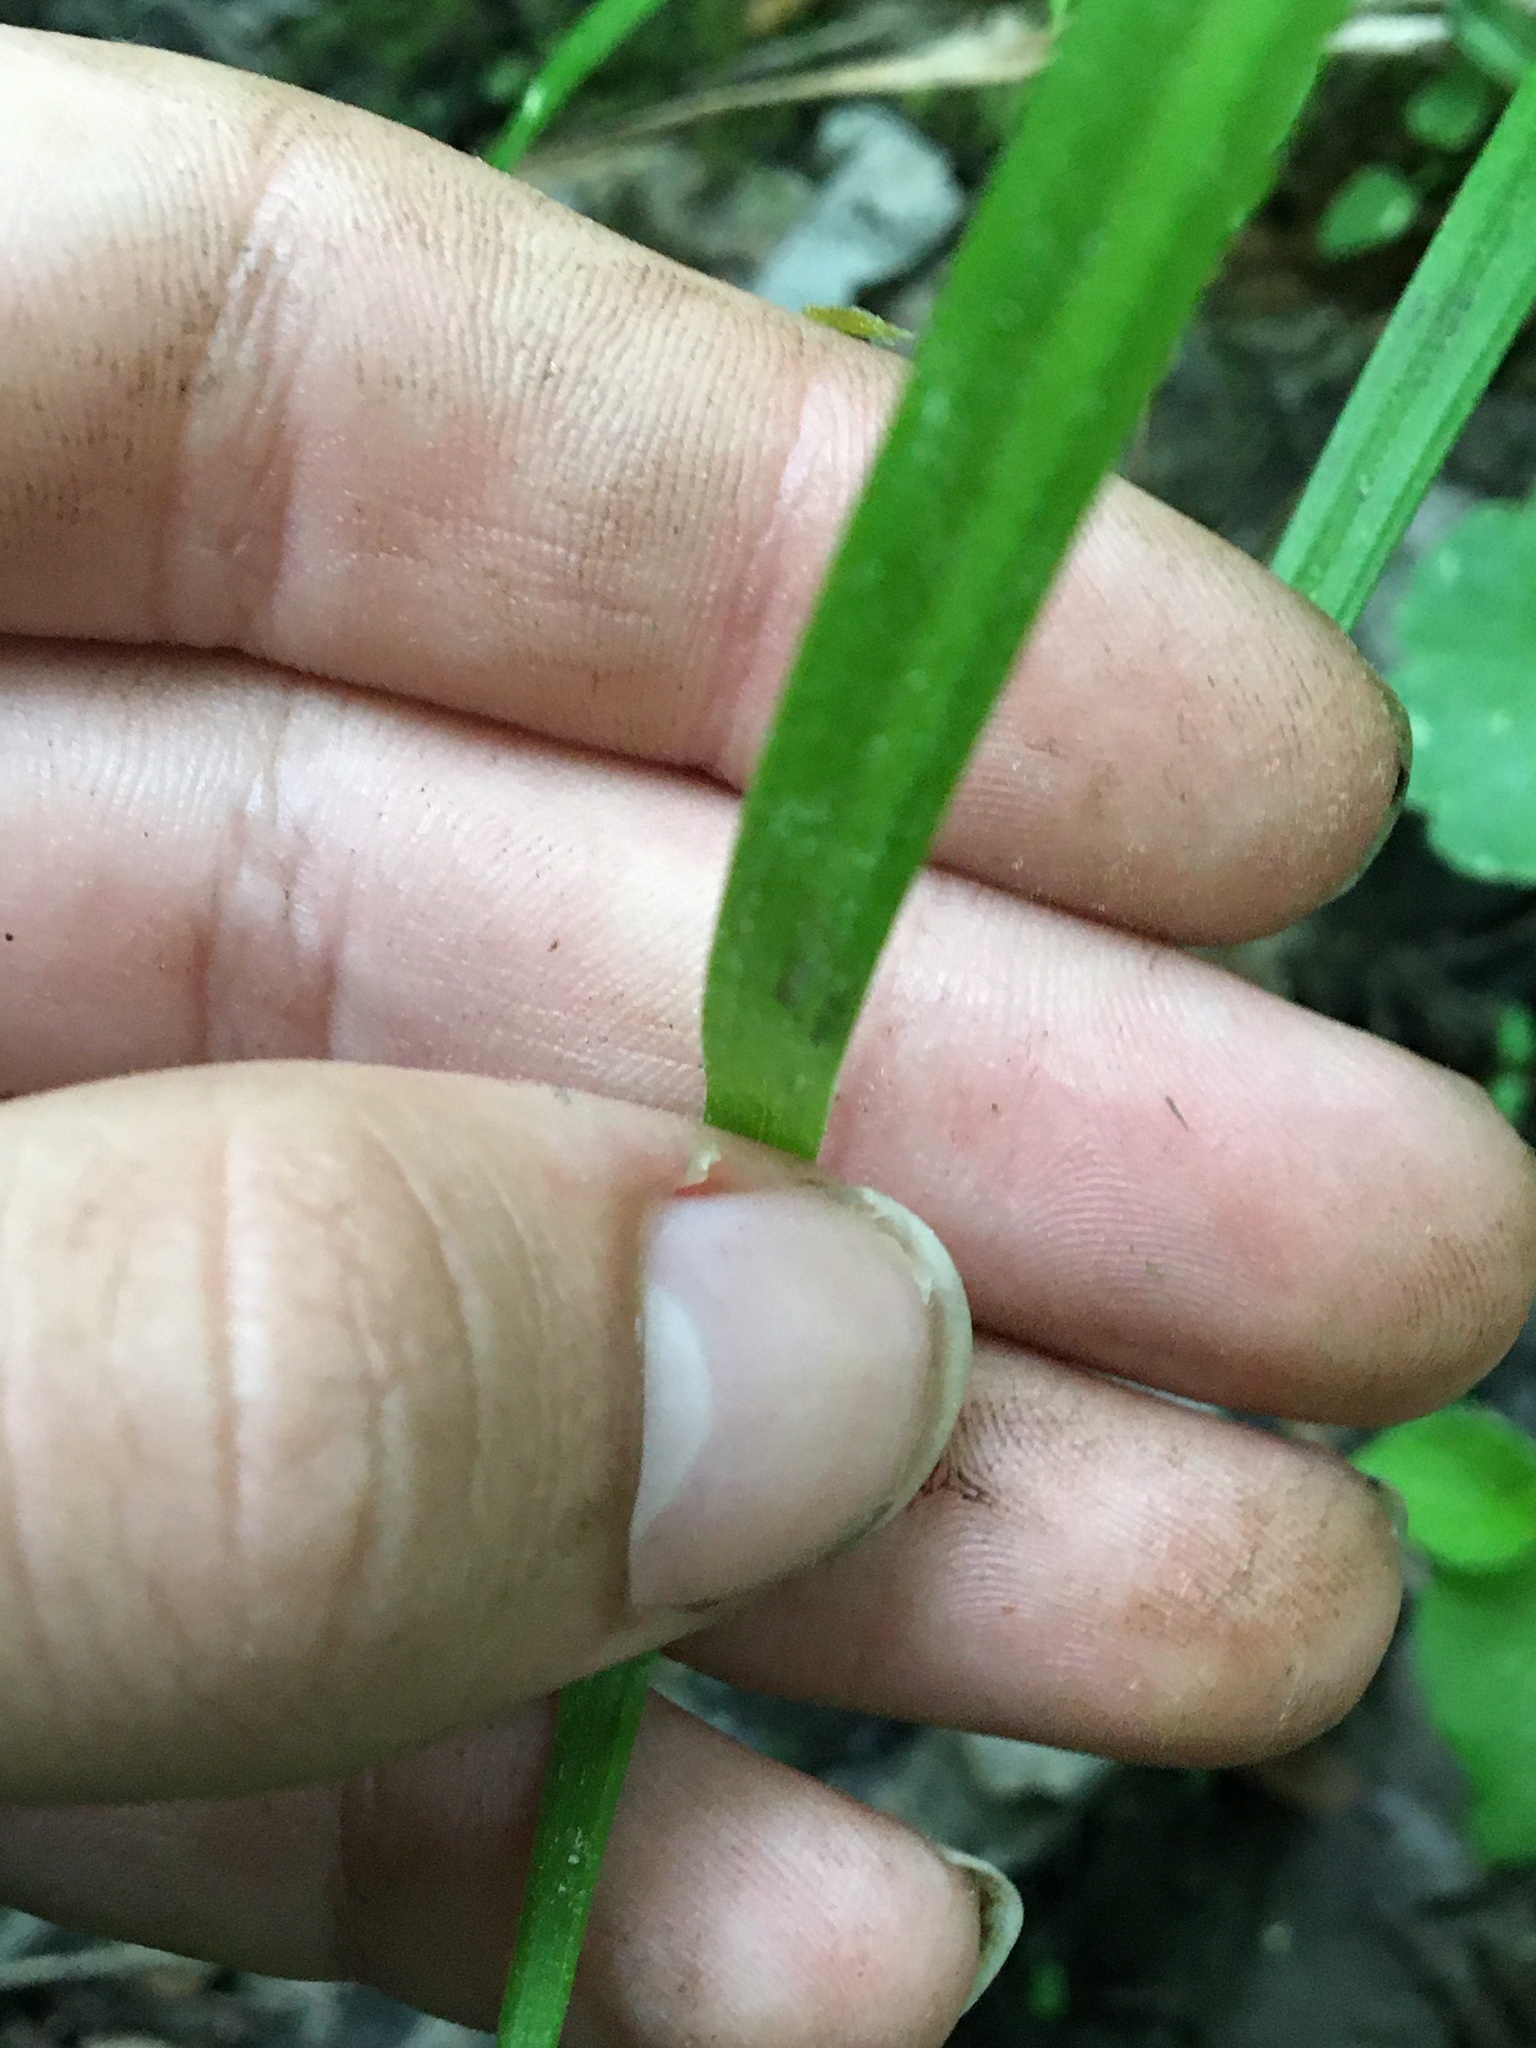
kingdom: Plantae
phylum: Tracheophyta
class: Liliopsida
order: Poales
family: Cyperaceae
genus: Carex
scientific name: Carex intumescens
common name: Greater bladder sedge
